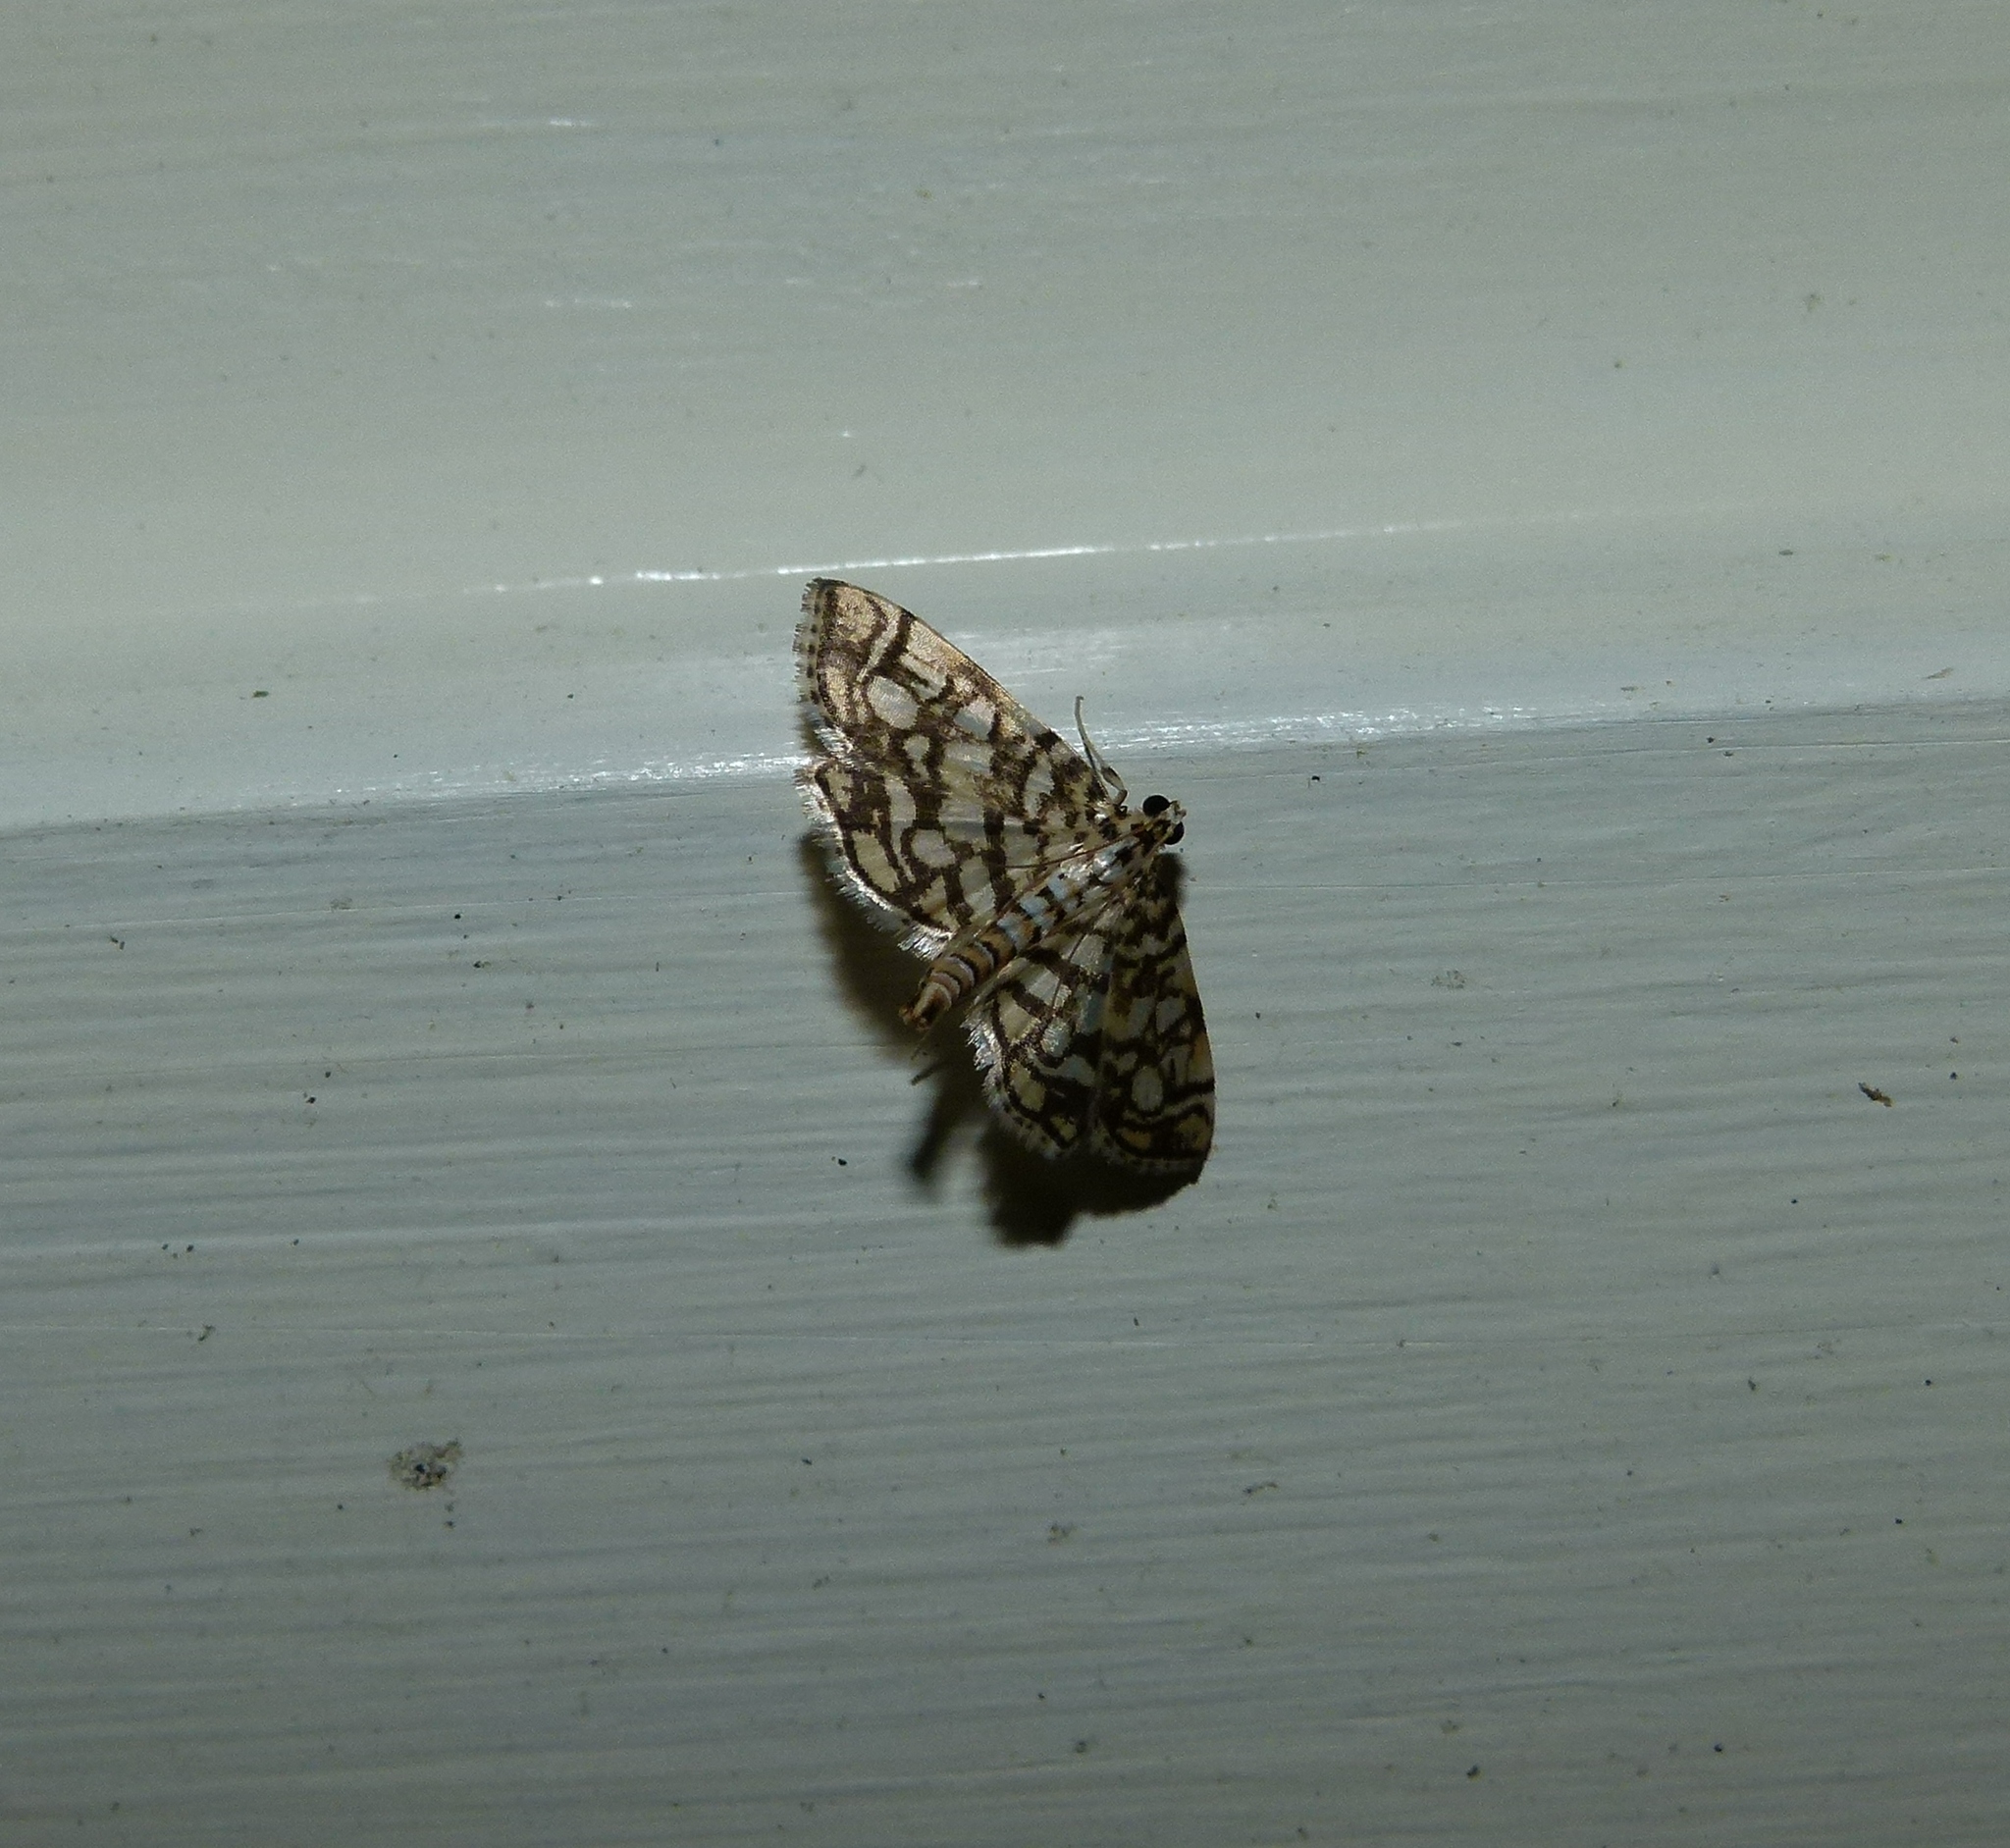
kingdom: Animalia
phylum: Arthropoda
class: Insecta
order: Lepidoptera
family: Crambidae
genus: Lygropia
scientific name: Lygropia rivulalis
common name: Bog lygropia moth
